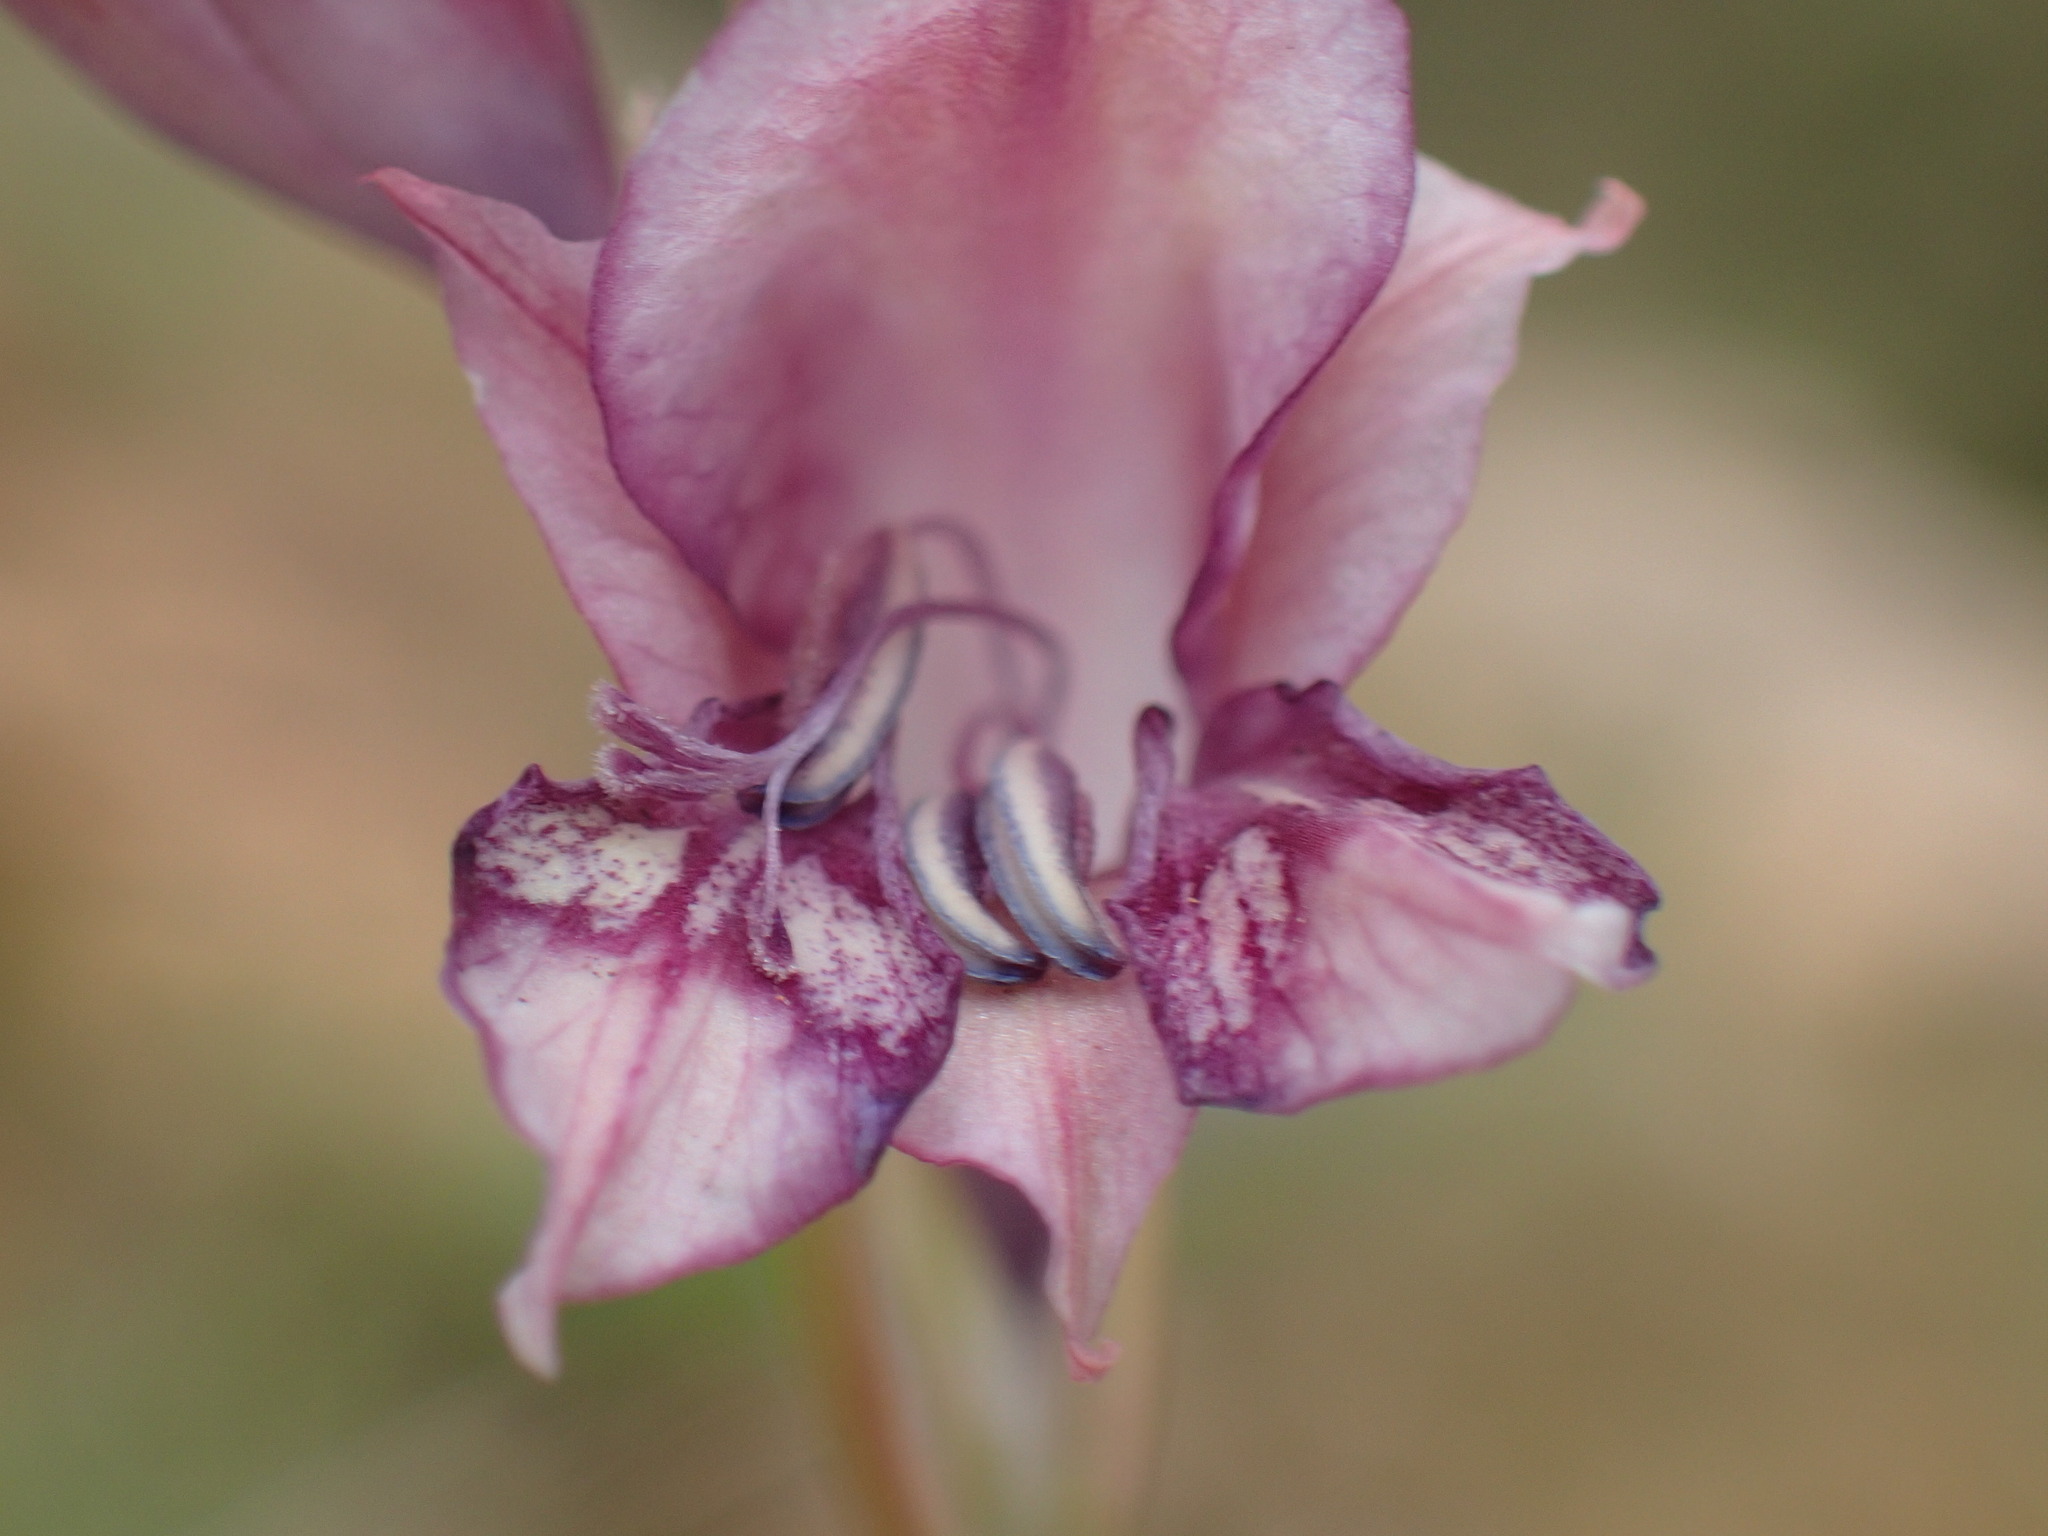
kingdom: Plantae
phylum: Tracheophyta
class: Liliopsida
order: Asparagales
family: Iridaceae
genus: Gladiolus
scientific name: Gladiolus crassifolius
